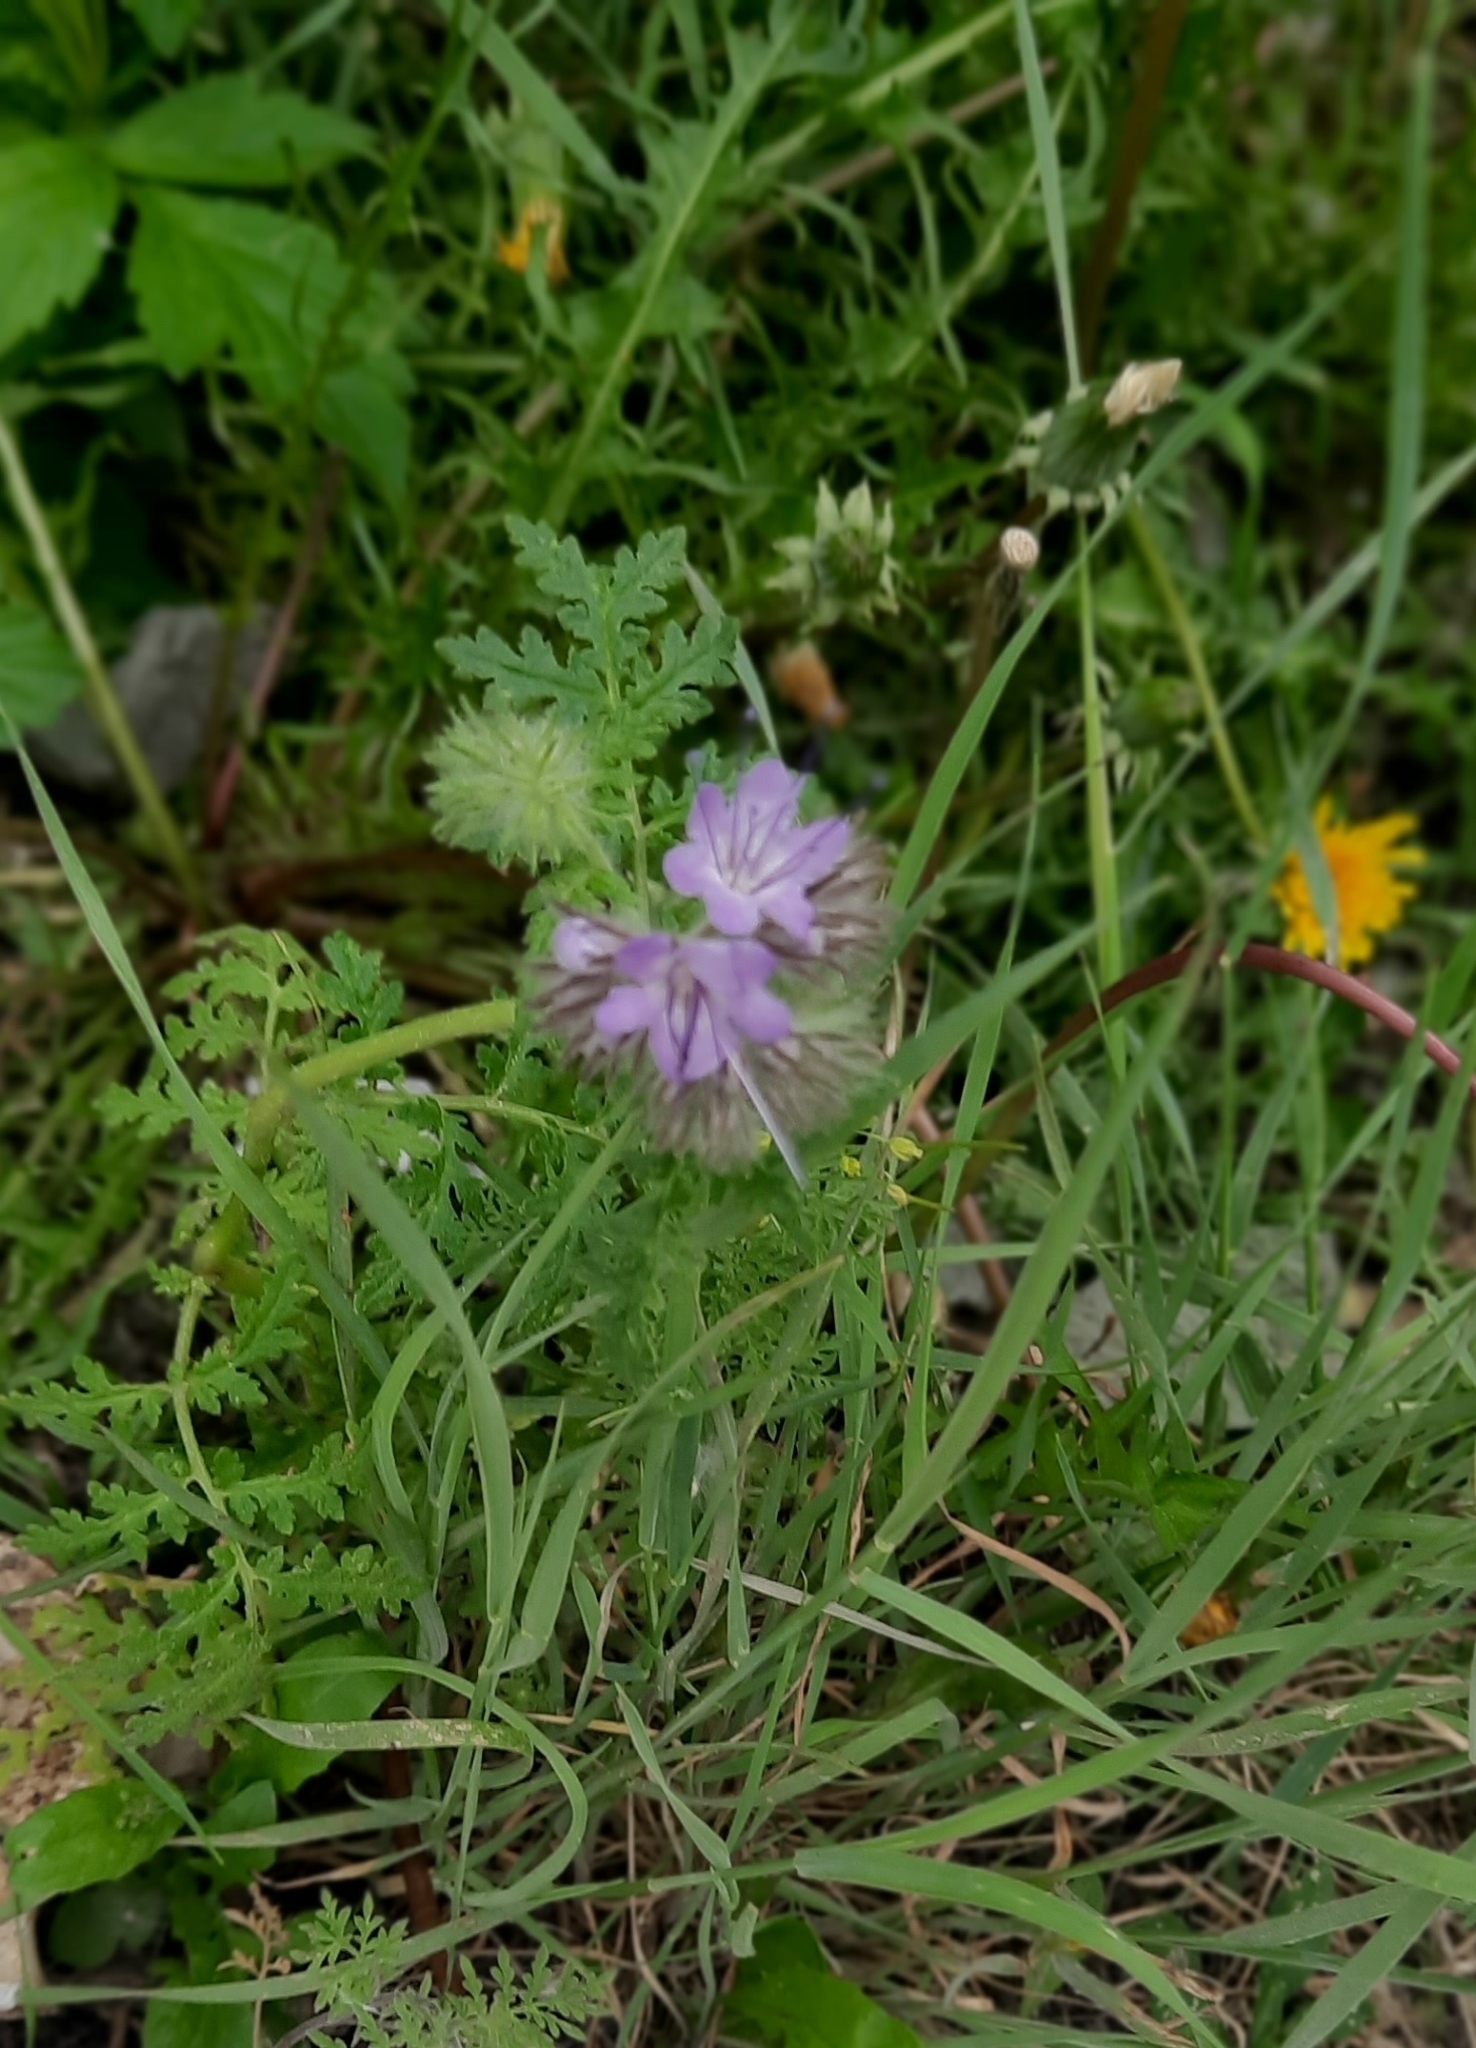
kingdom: Plantae
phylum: Tracheophyta
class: Magnoliopsida
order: Boraginales
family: Hydrophyllaceae
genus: Phacelia
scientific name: Phacelia tanacetifolia
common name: Phacelia
